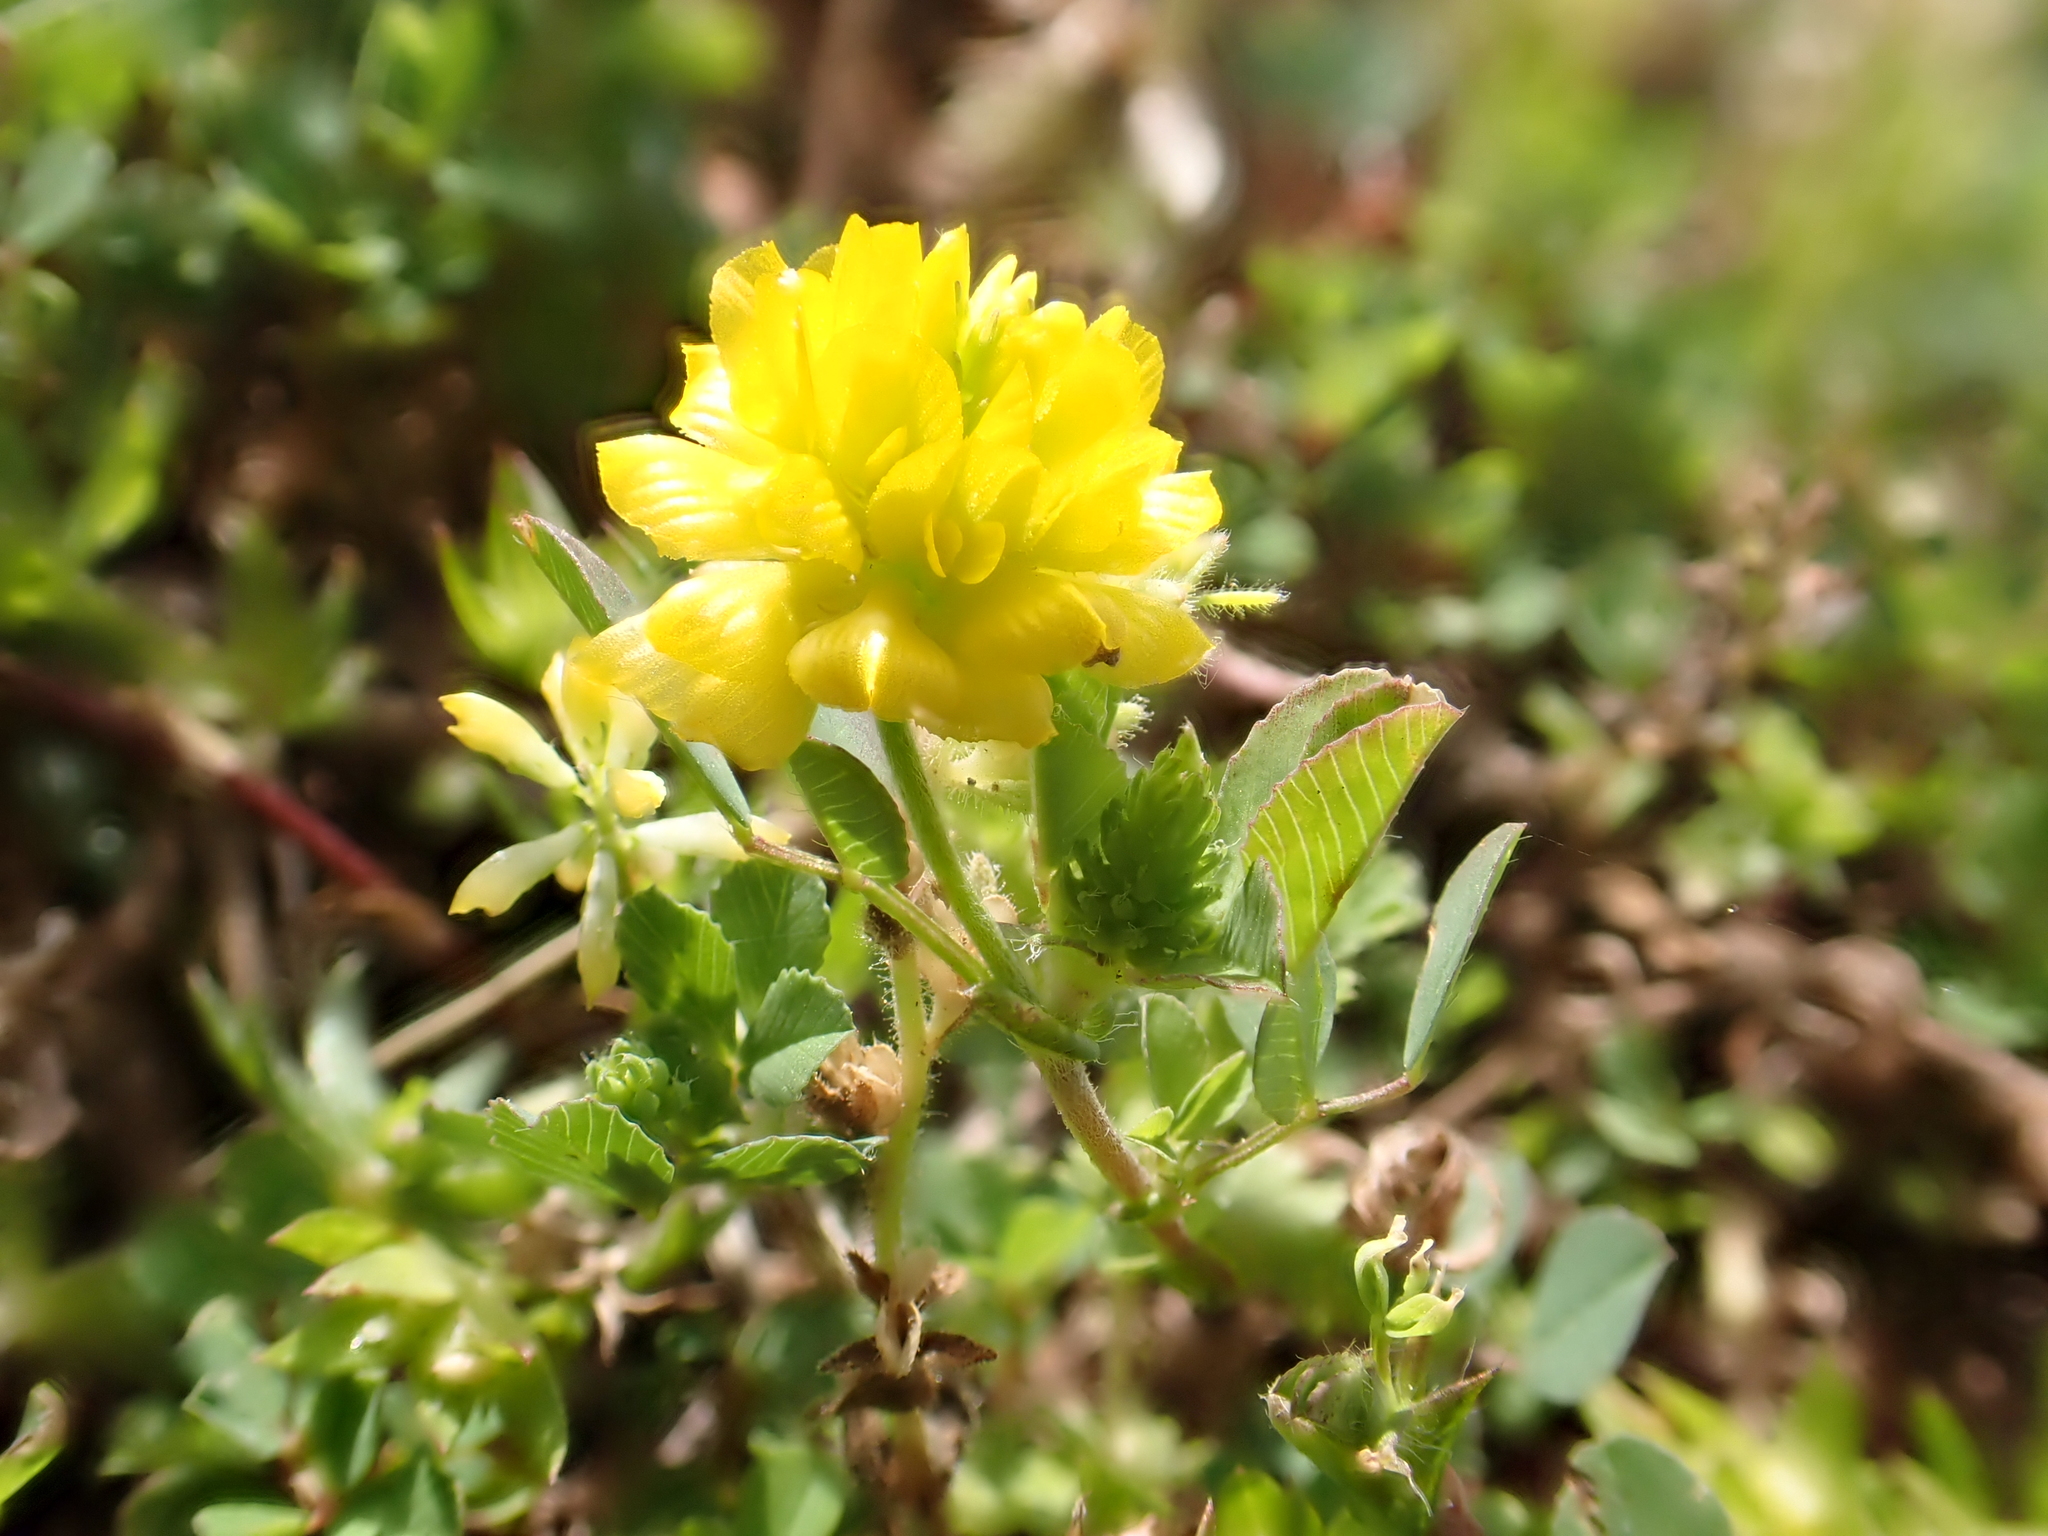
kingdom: Plantae
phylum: Tracheophyta
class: Magnoliopsida
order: Fabales
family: Fabaceae
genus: Trifolium
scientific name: Trifolium campestre
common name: Field clover
